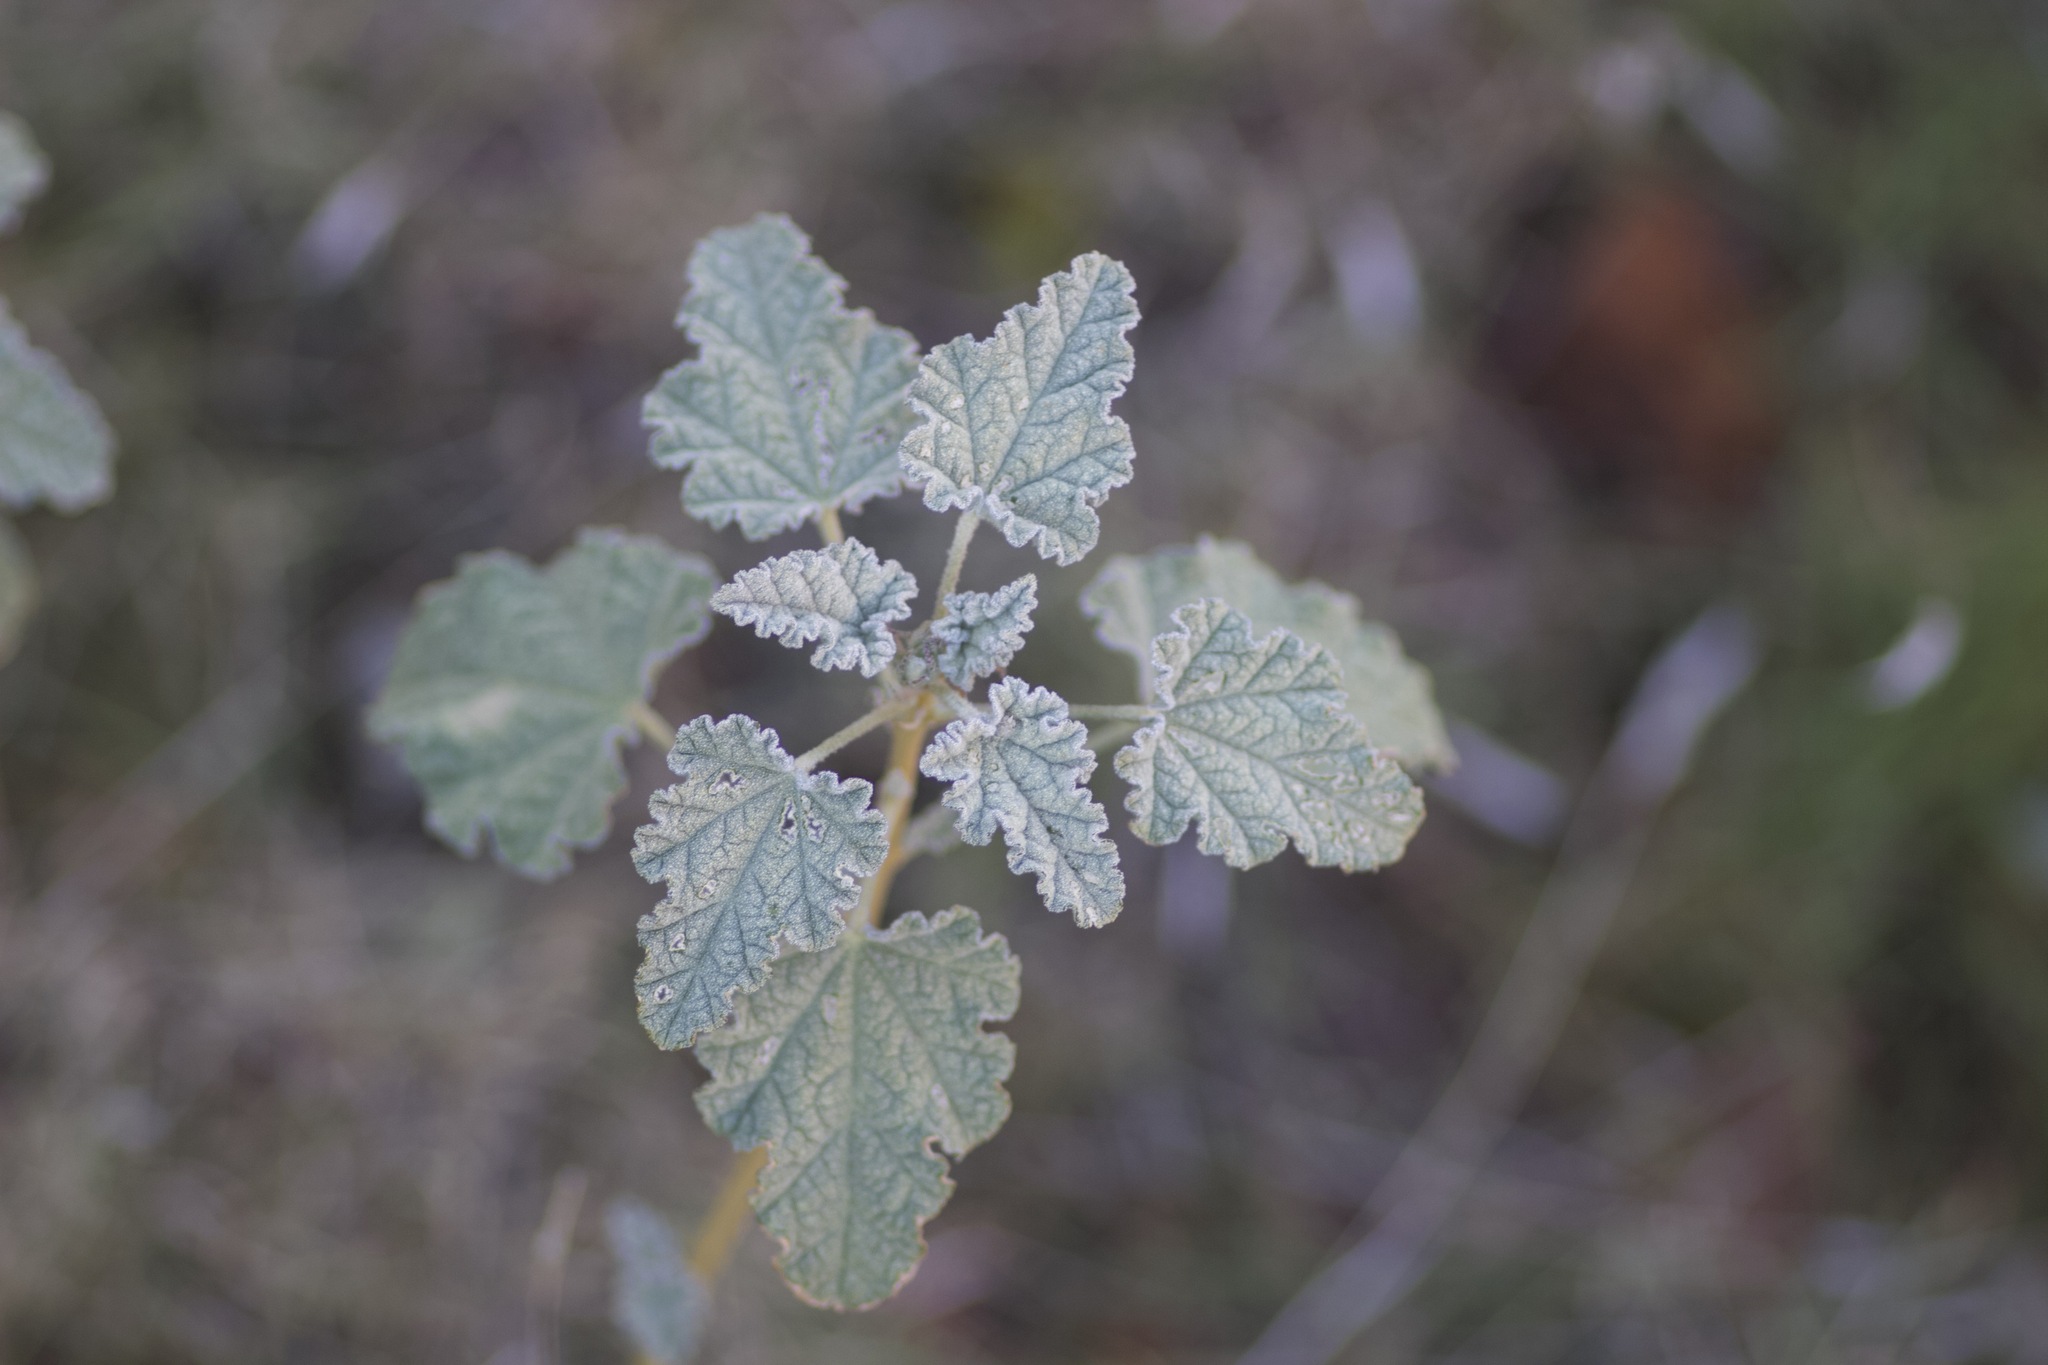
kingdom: Plantae
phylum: Tracheophyta
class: Magnoliopsida
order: Malvales
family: Malvaceae
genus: Sphaeralcea
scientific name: Sphaeralcea ambigua
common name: Apricot globe-mallow
